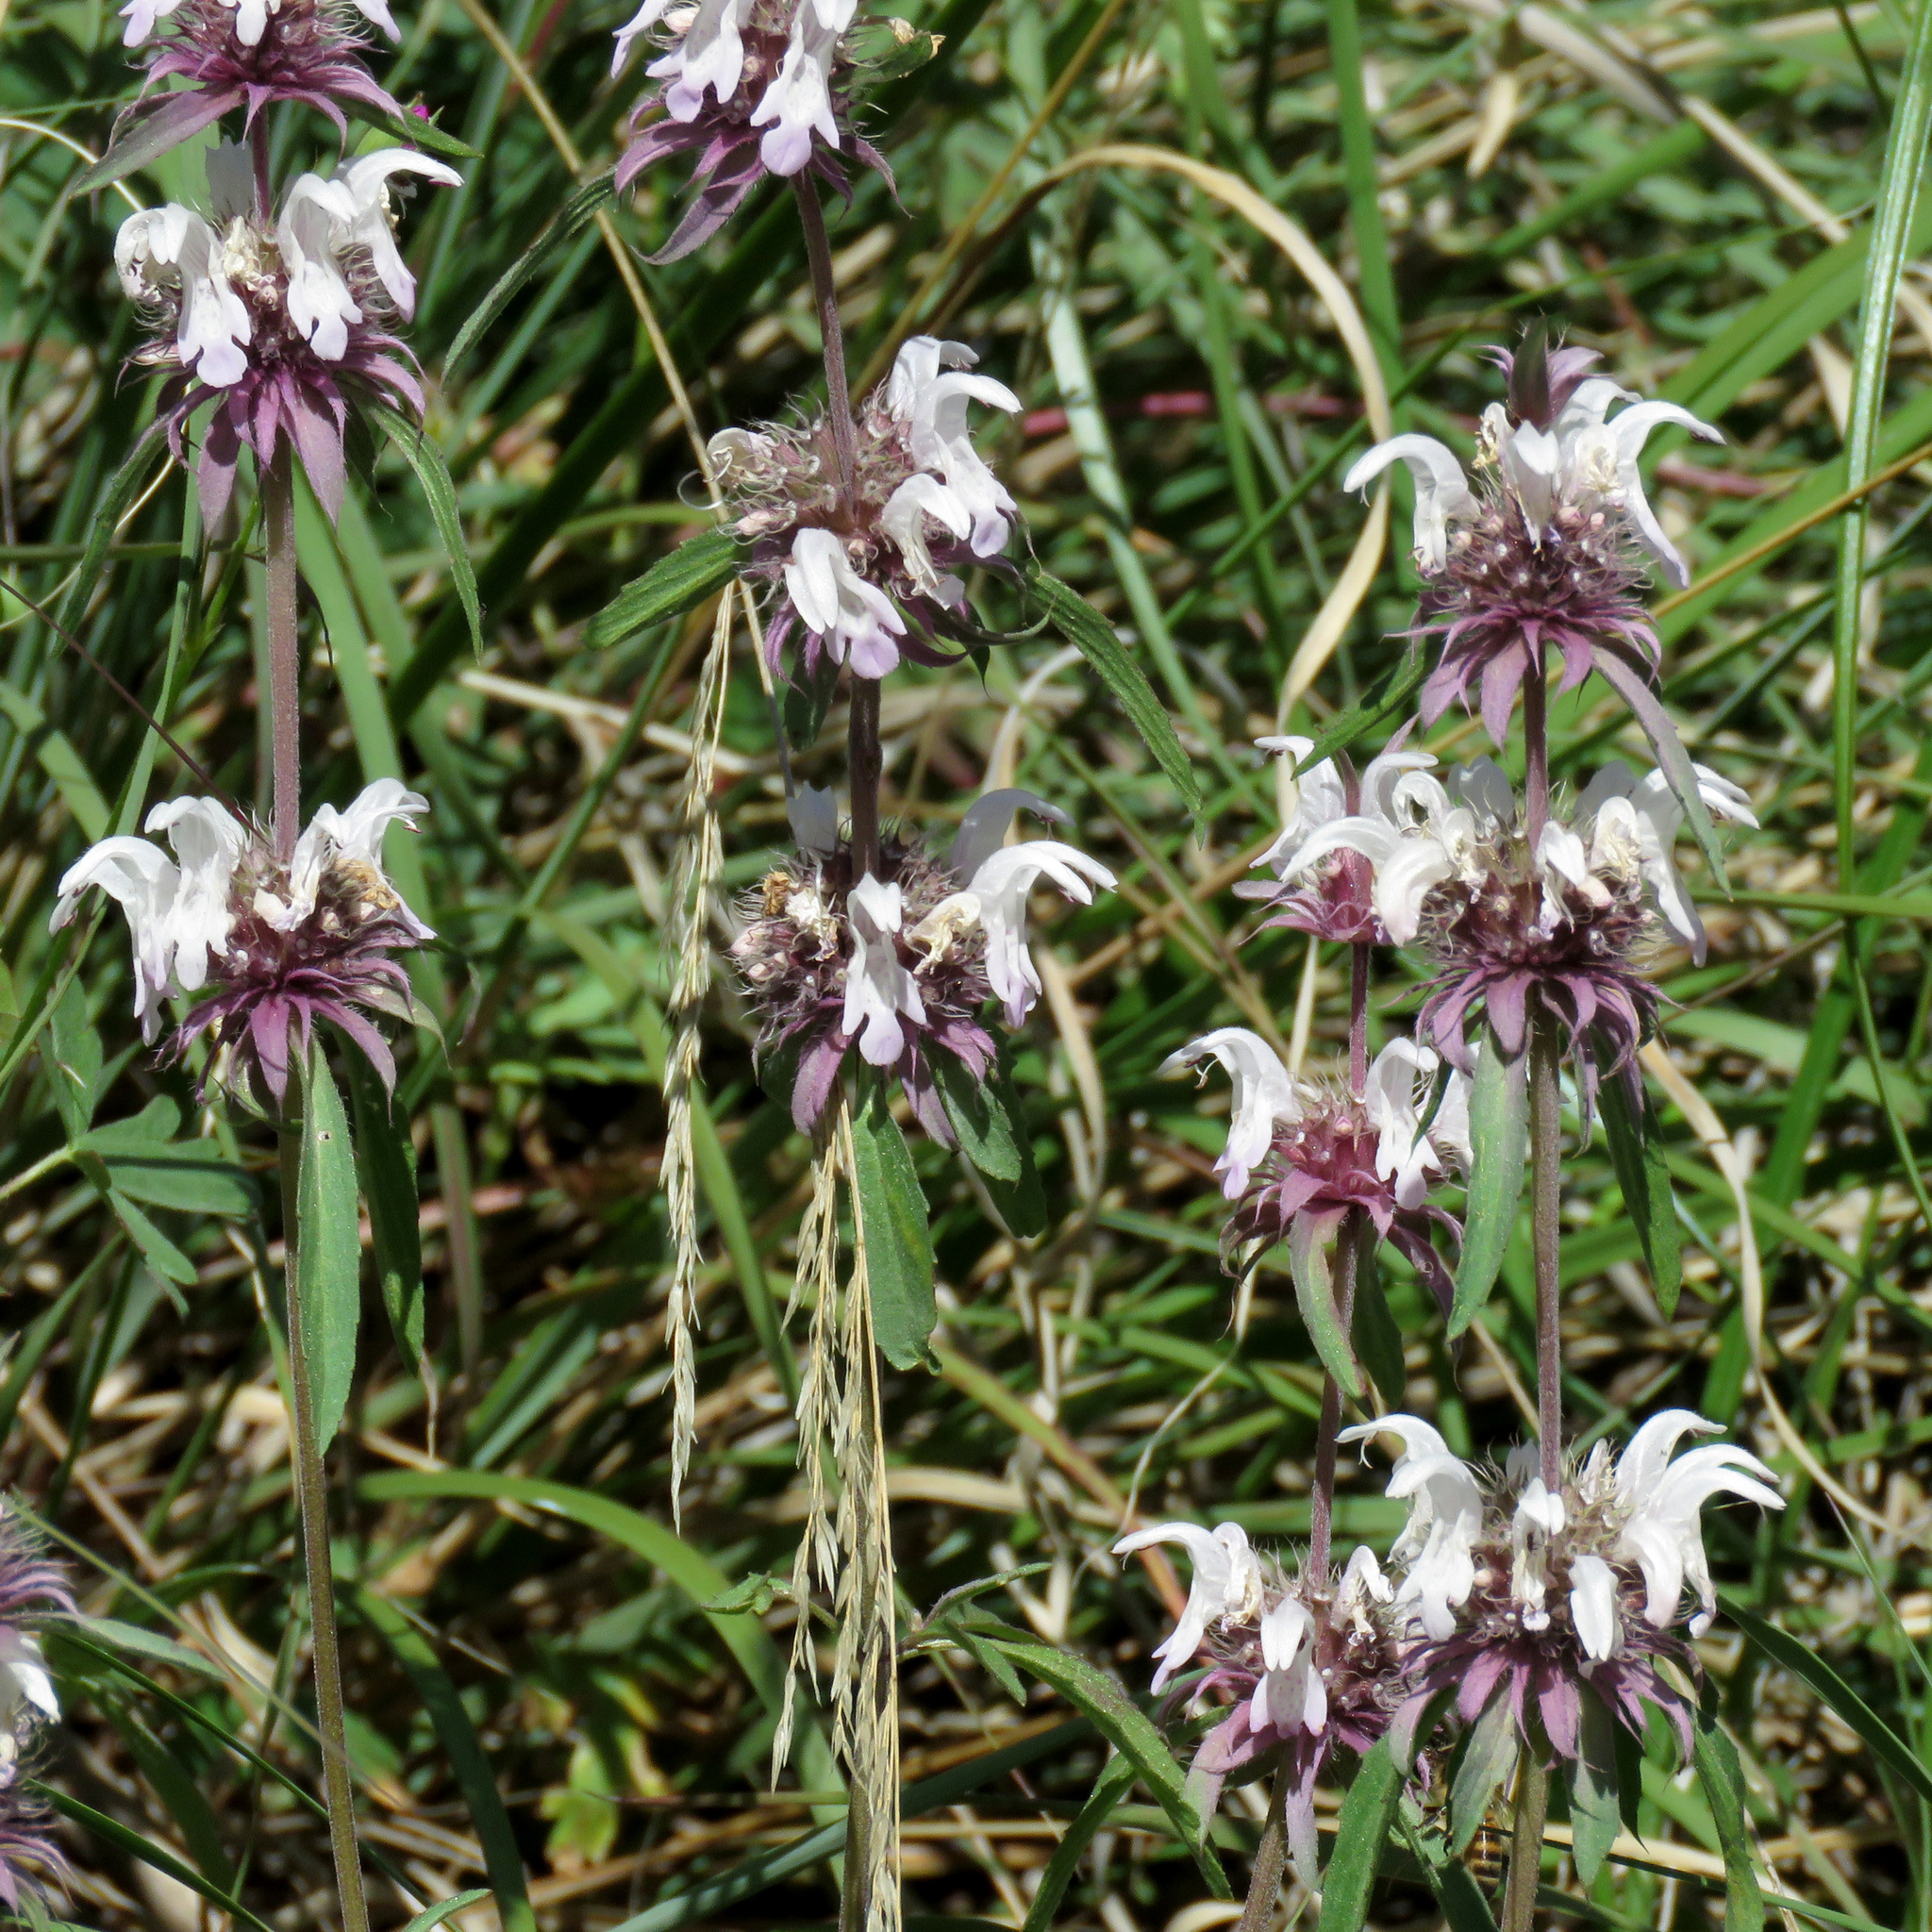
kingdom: Plantae
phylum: Tracheophyta
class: Magnoliopsida
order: Lamiales
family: Lamiaceae
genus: Monarda
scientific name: Monarda citriodora
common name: Lemon beebalm
